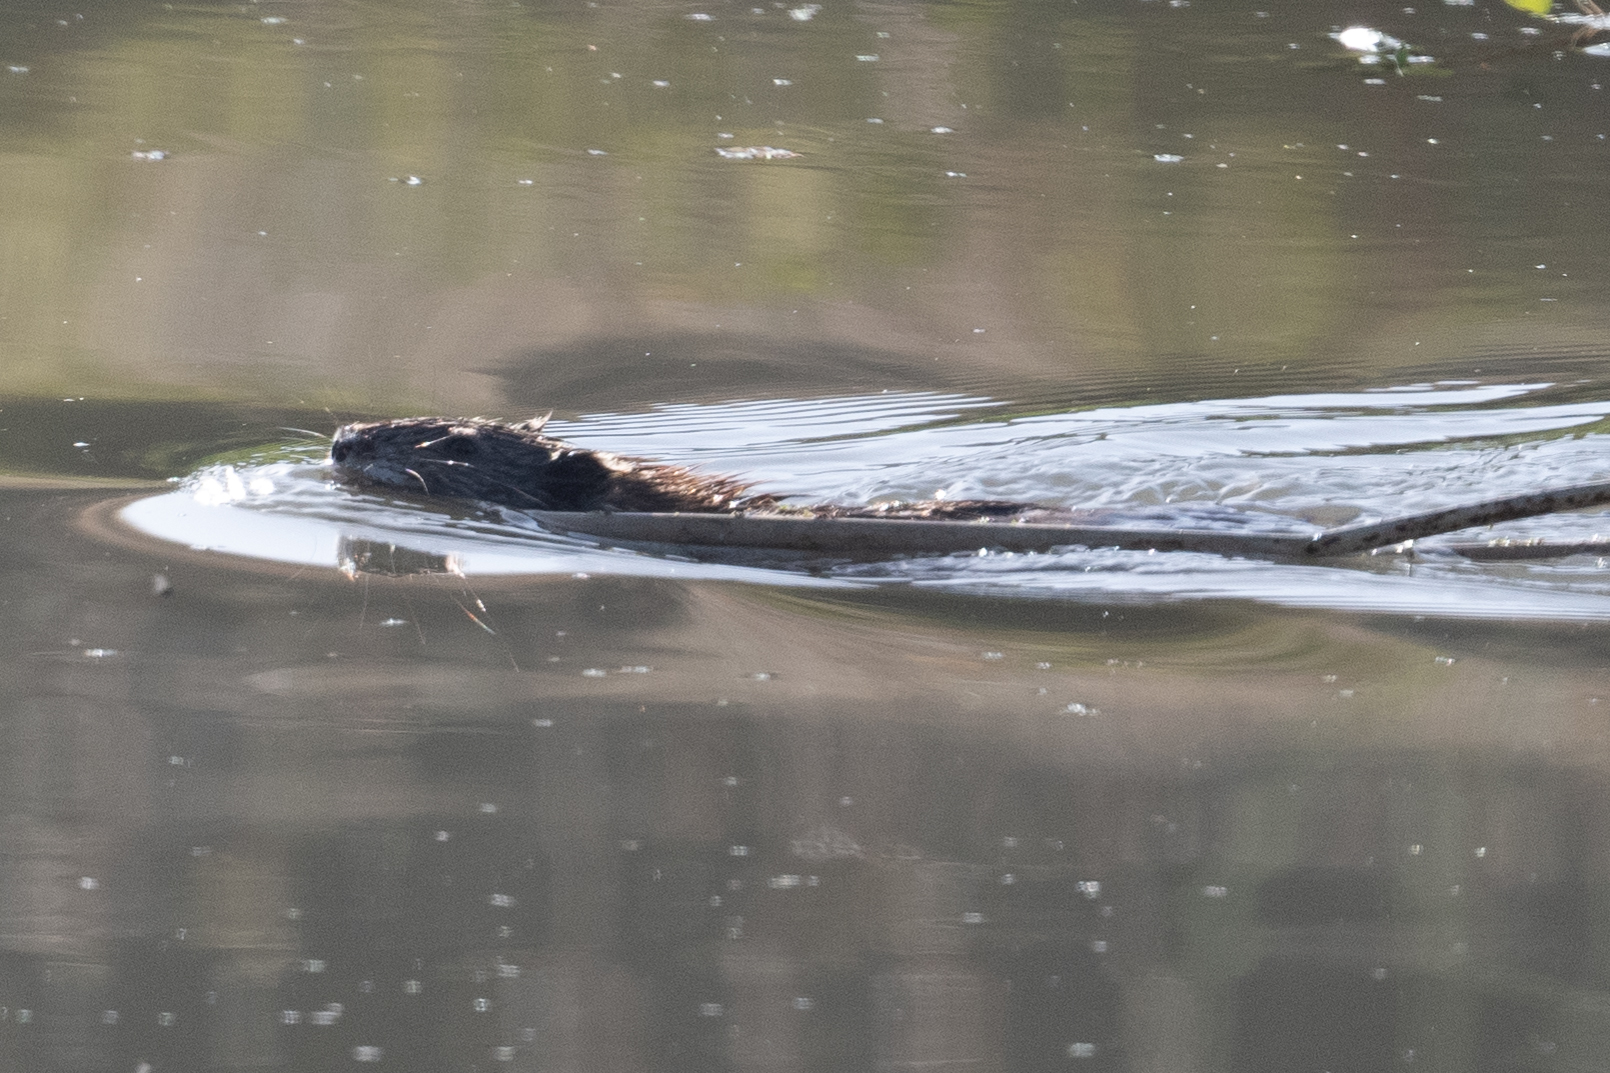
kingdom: Animalia
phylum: Chordata
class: Mammalia
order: Rodentia
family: Cricetidae
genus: Ondatra
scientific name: Ondatra zibethicus
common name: Muskrat
